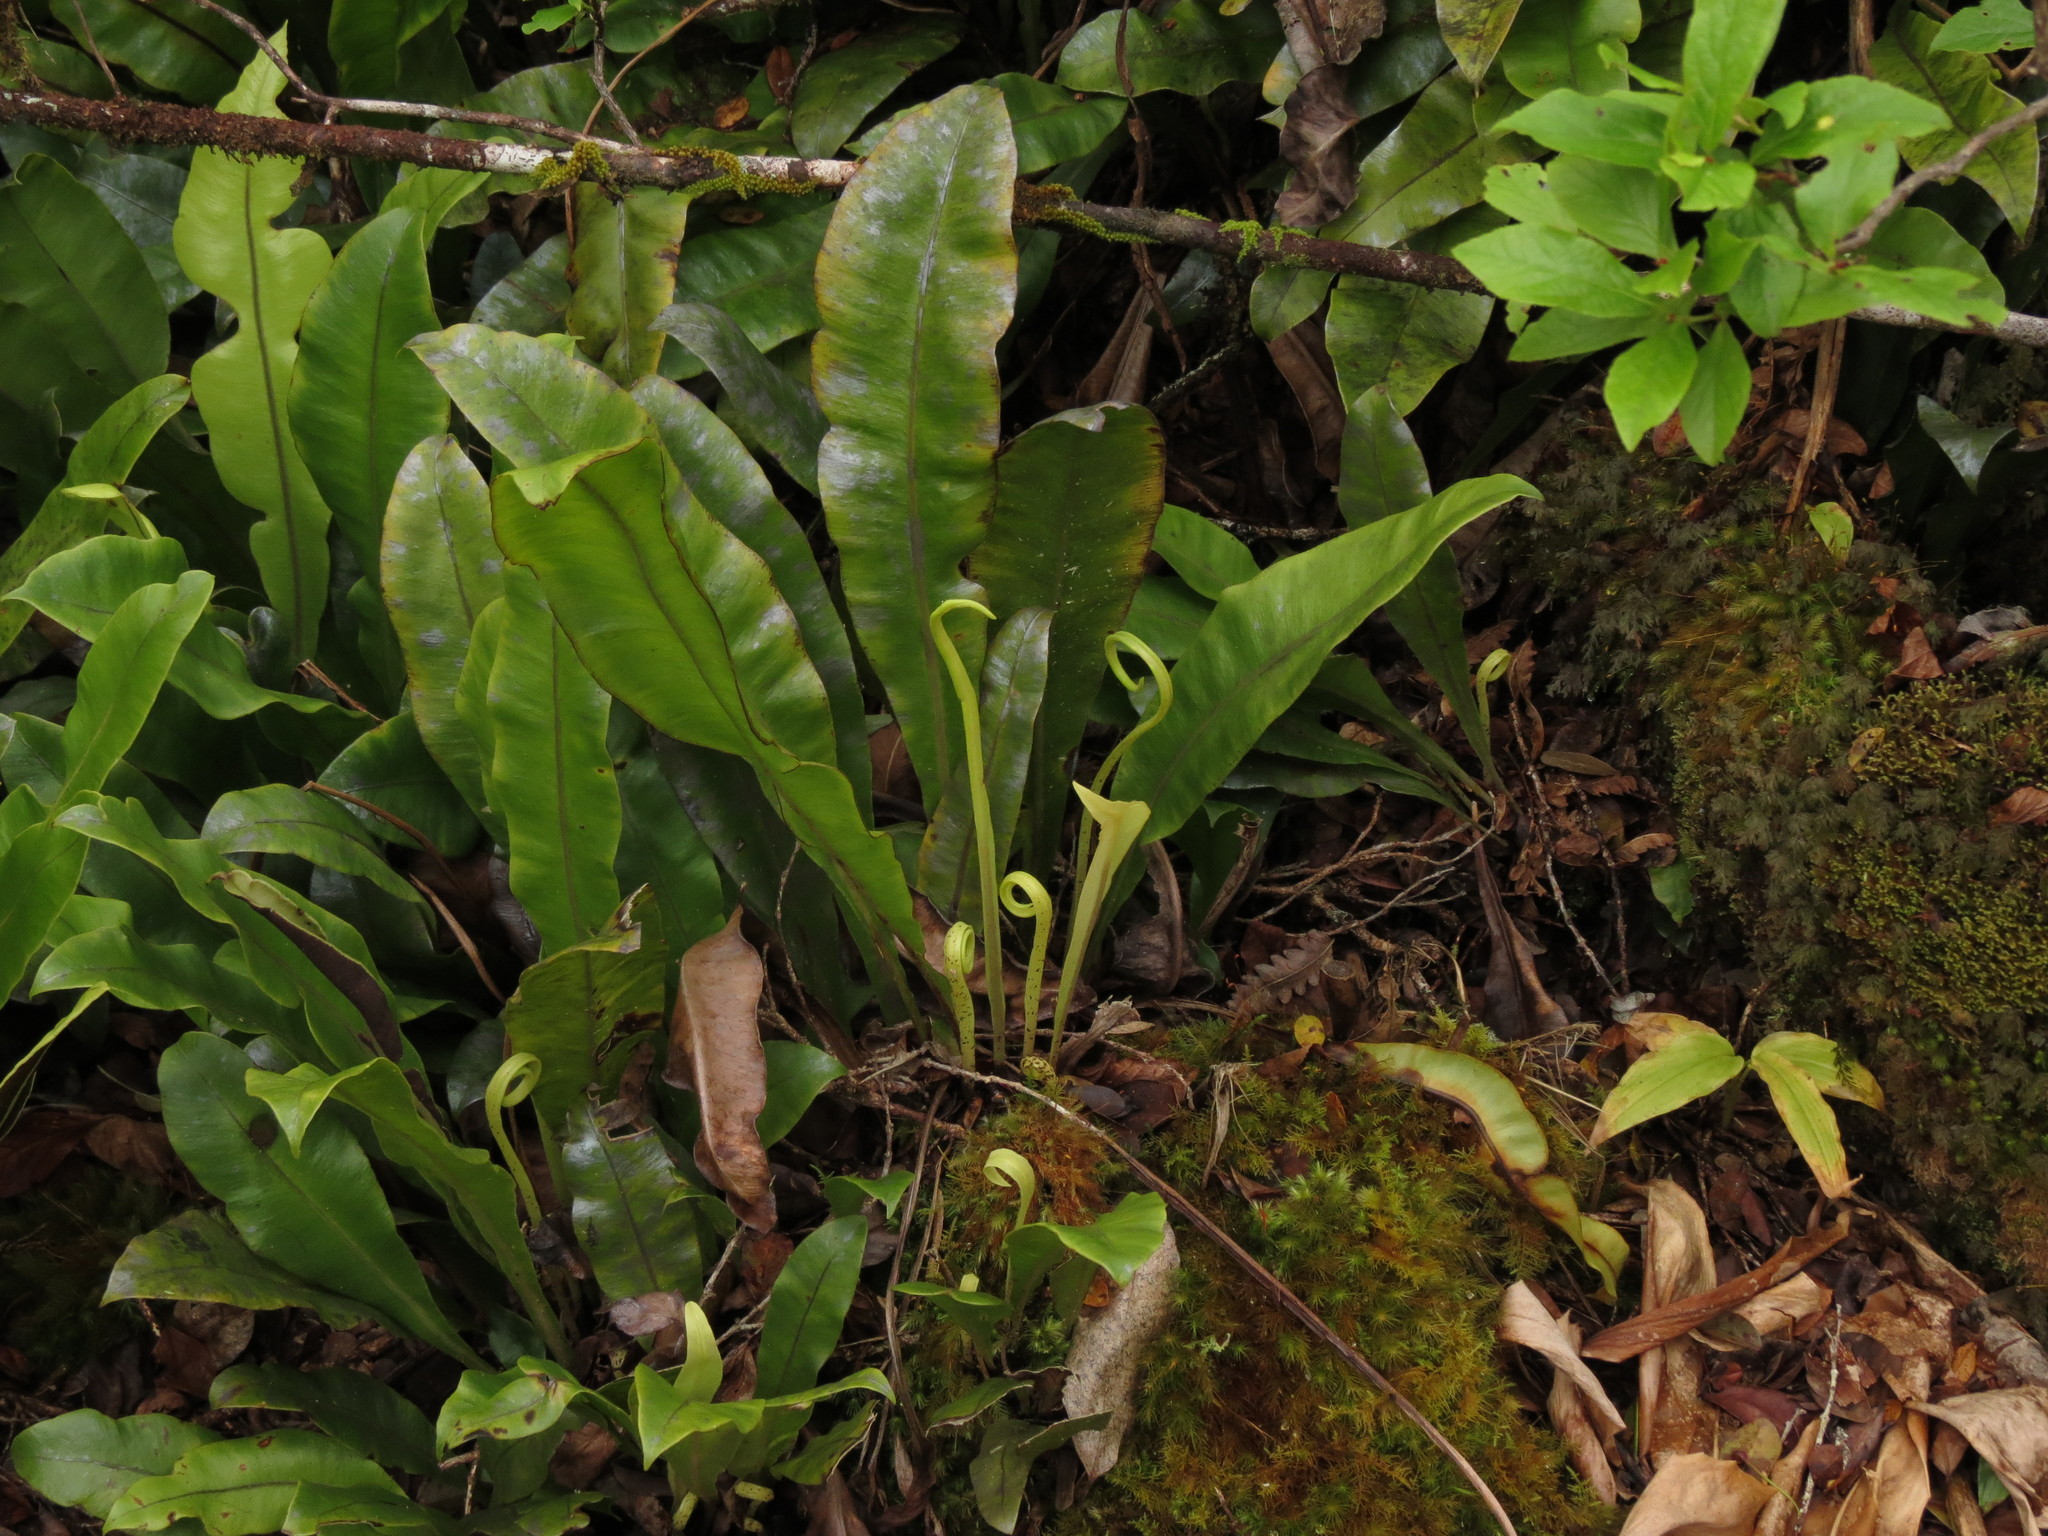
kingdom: Plantae
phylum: Tracheophyta
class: Polypodiopsida
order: Polypodiales
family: Dryopteridaceae
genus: Elaphoglossum
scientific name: Elaphoglossum crassicaule
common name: Maui's paddle
